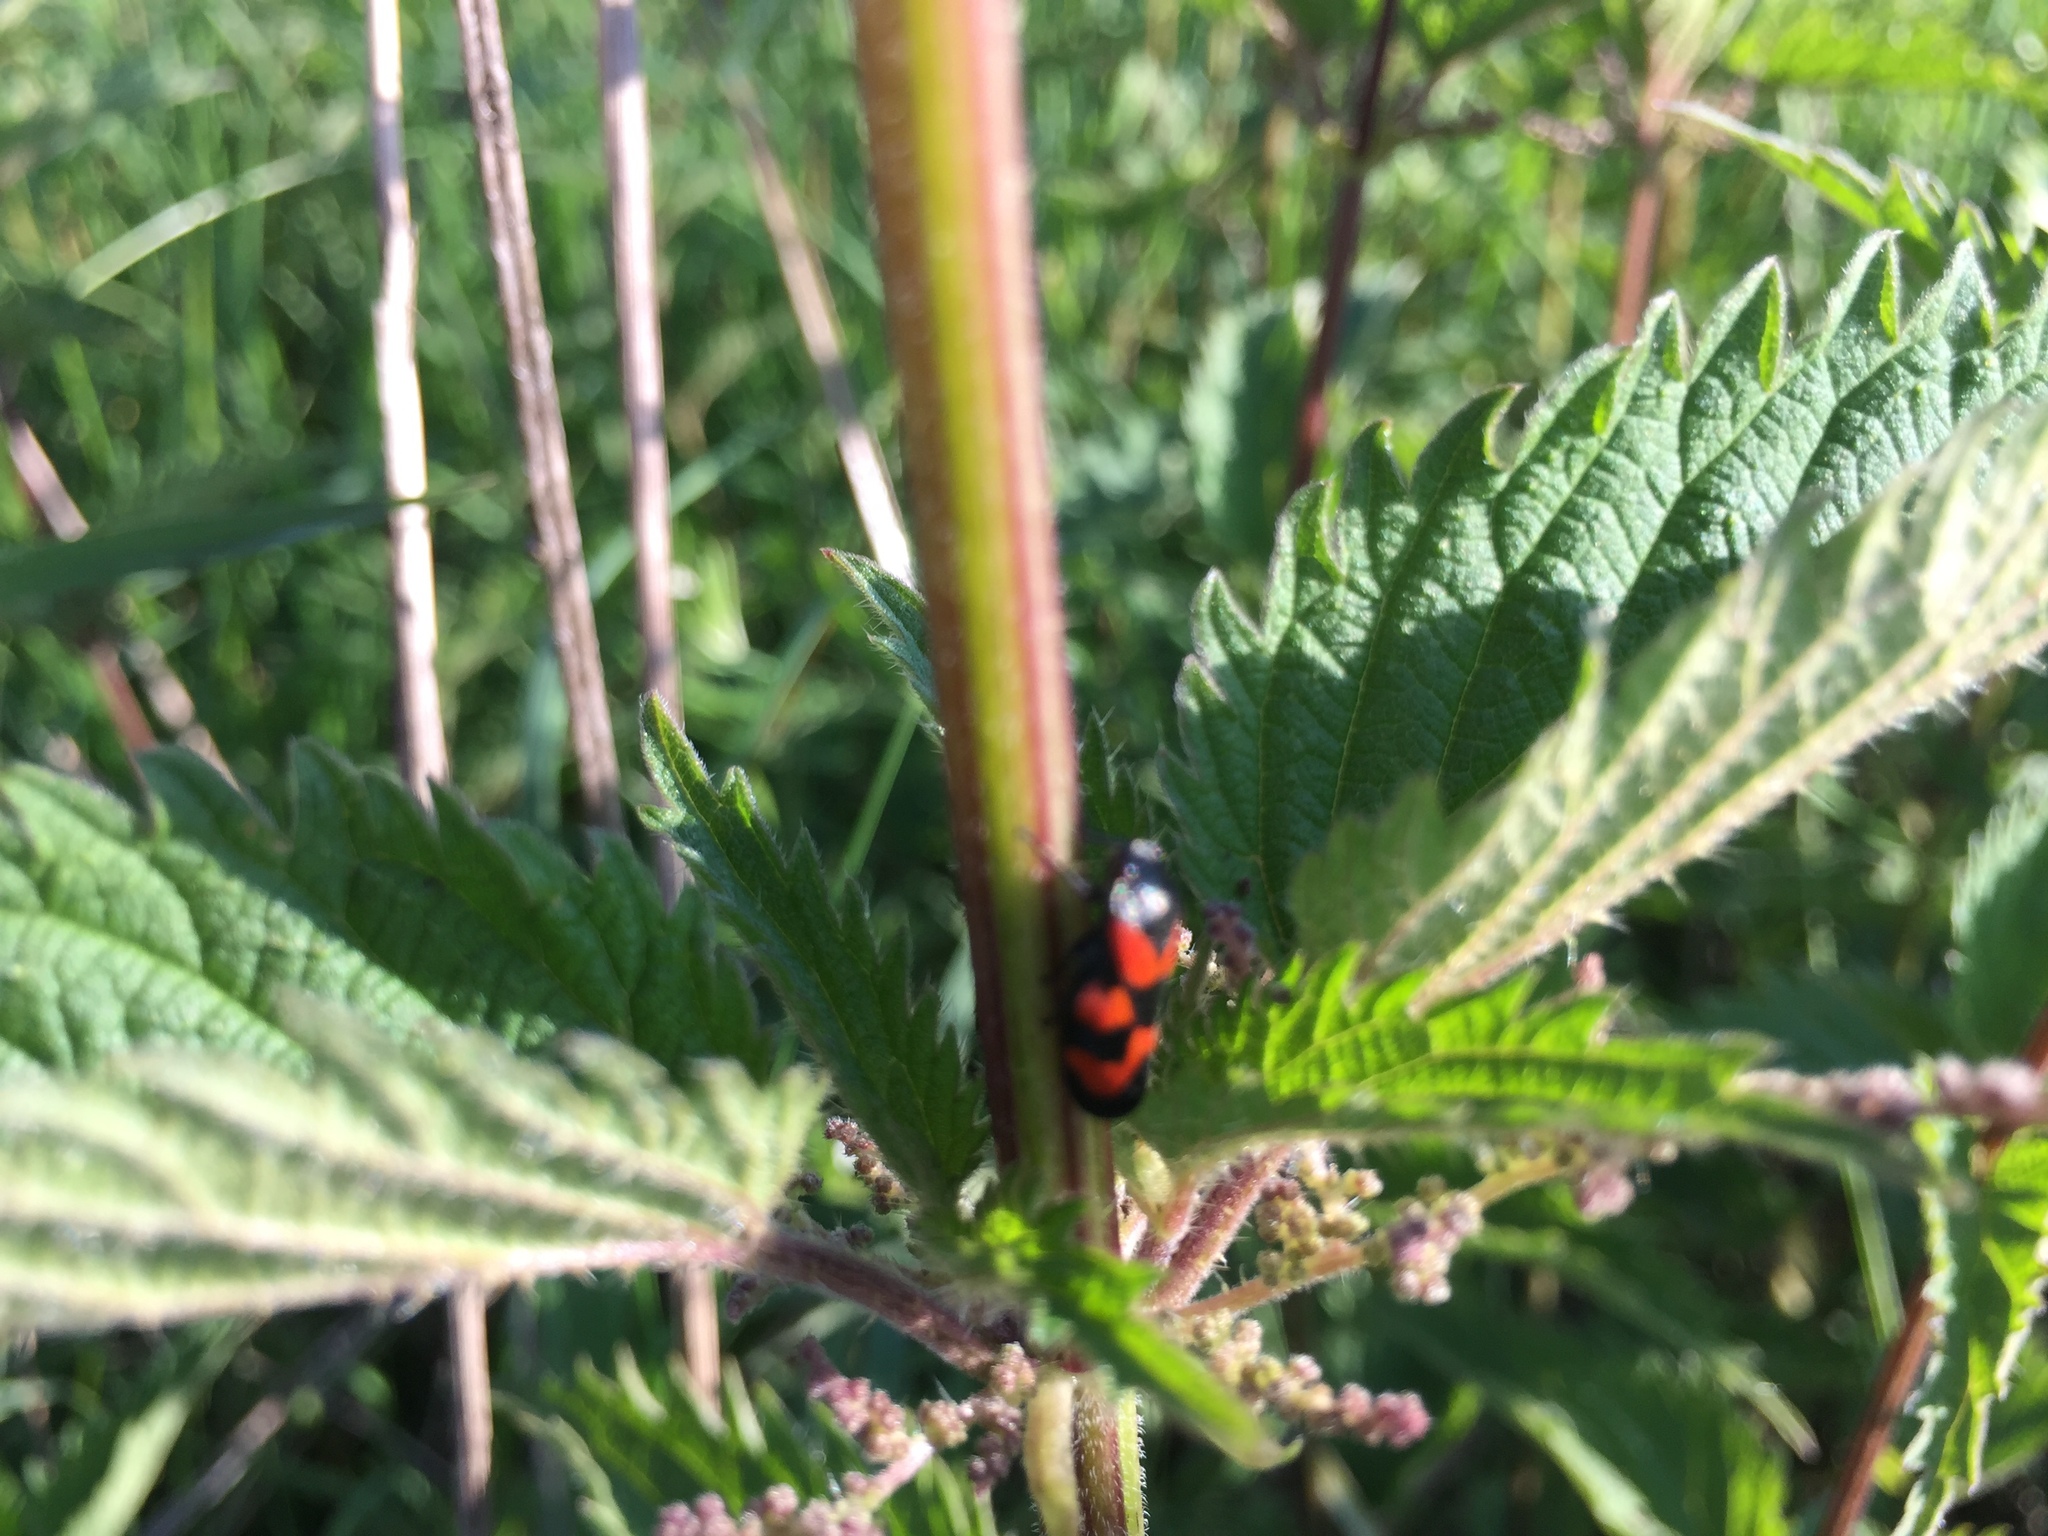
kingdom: Animalia
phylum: Arthropoda
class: Insecta
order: Hemiptera
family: Cercopidae
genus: Cercopis
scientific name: Cercopis vulnerata
